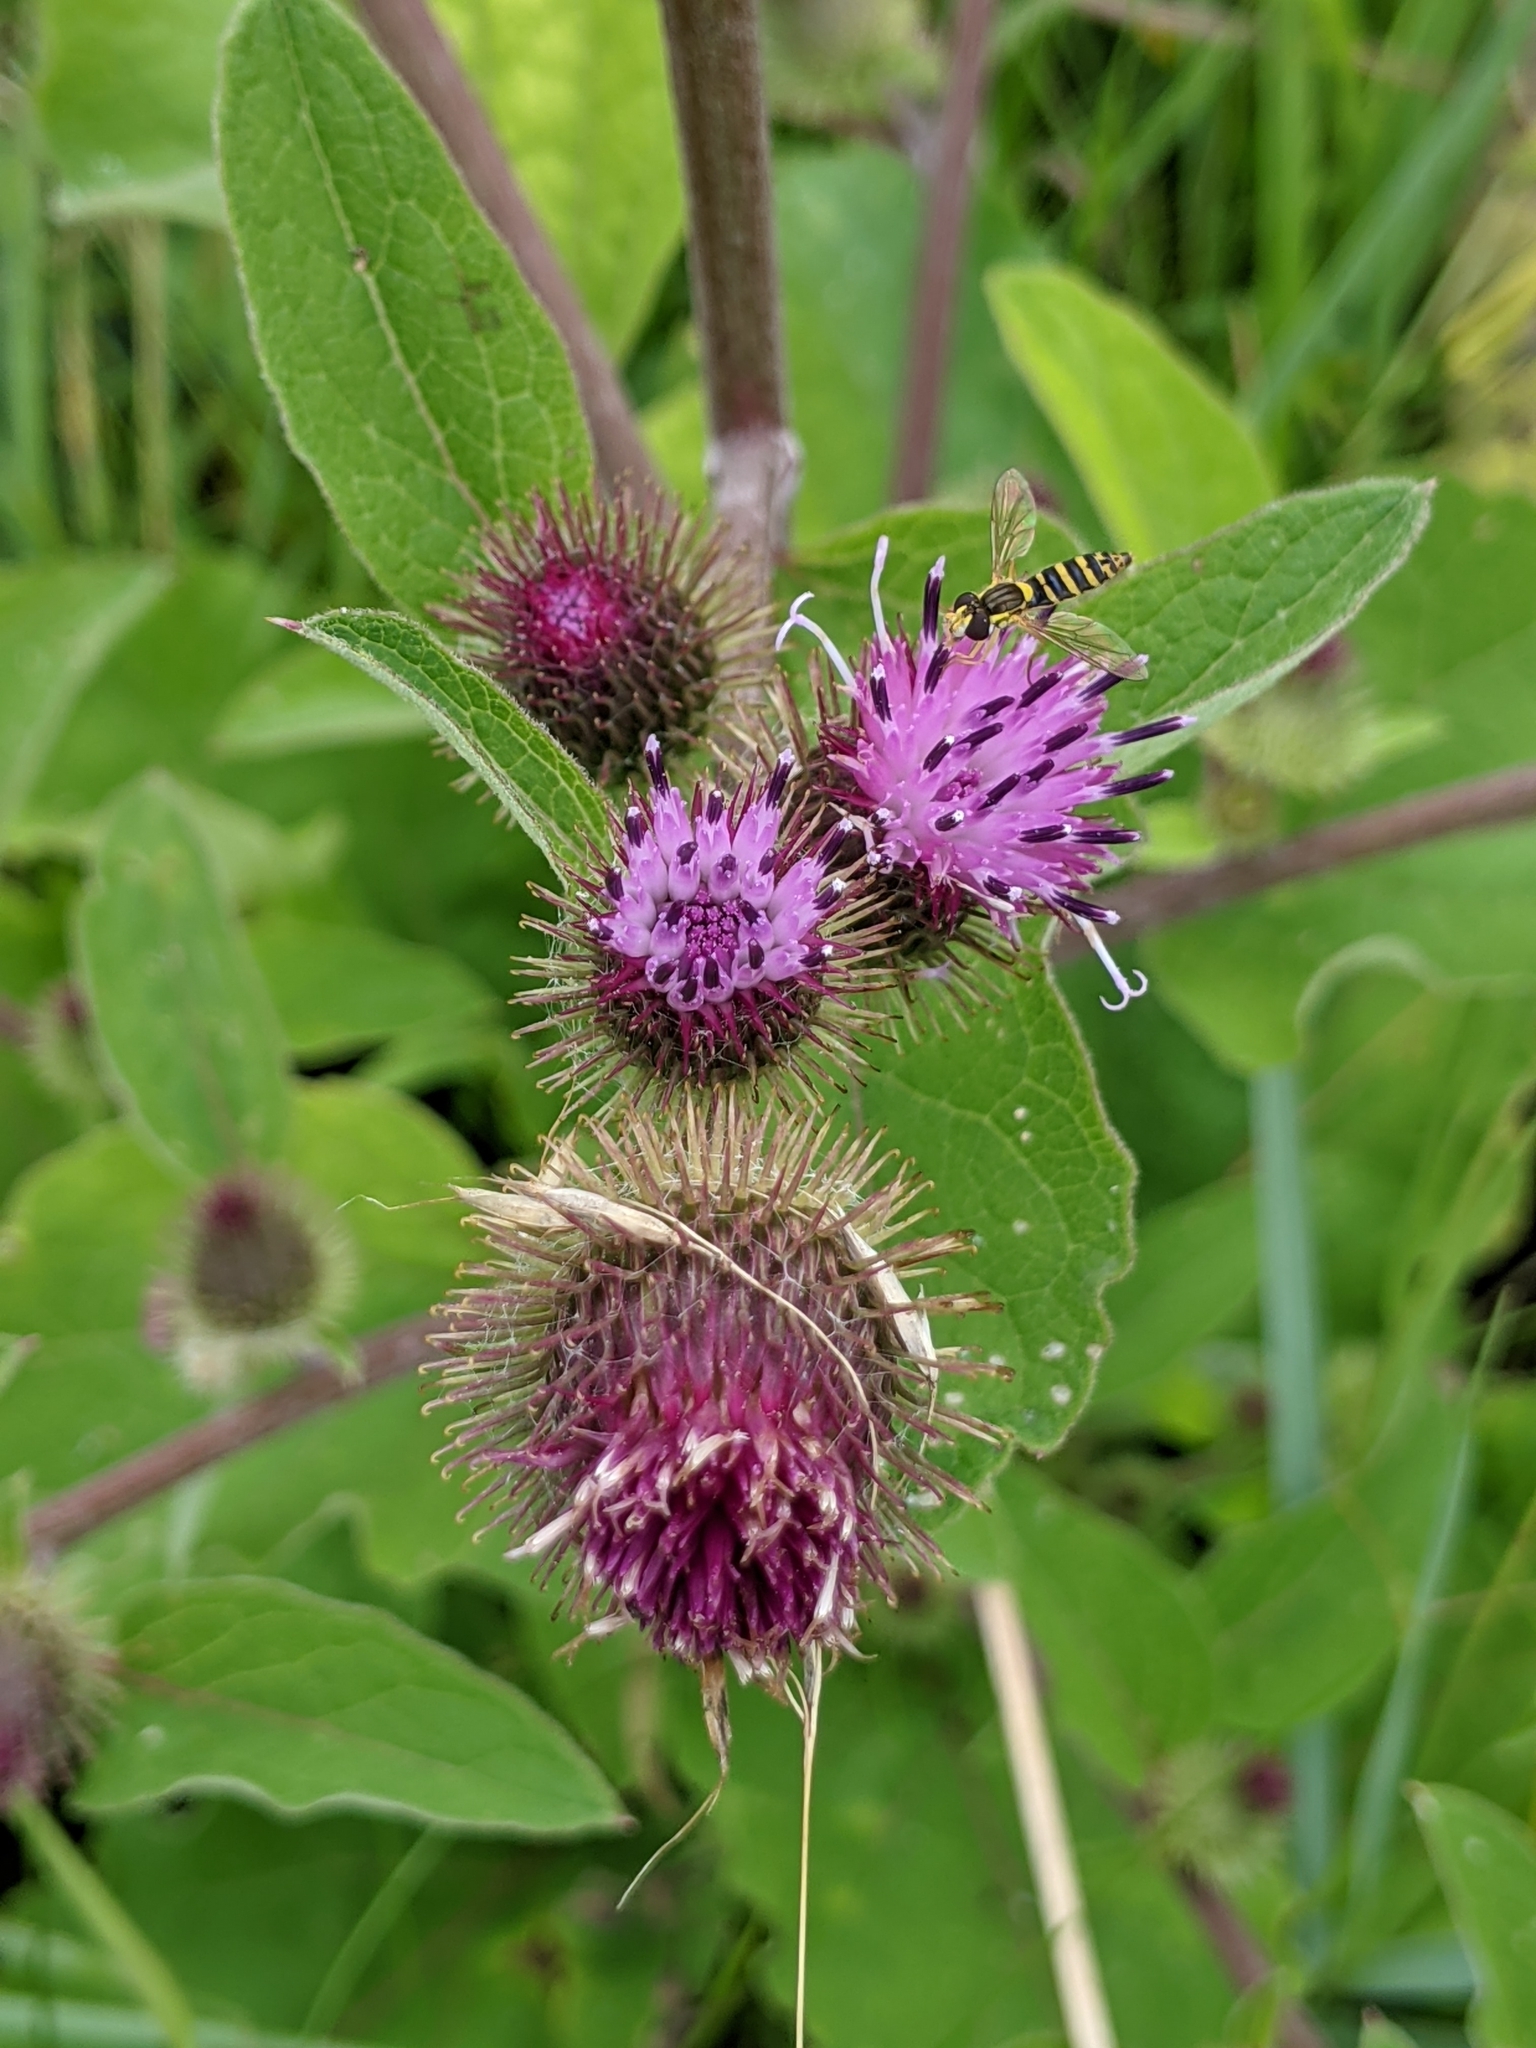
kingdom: Plantae
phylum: Tracheophyta
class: Magnoliopsida
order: Asterales
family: Asteraceae
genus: Arctium
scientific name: Arctium minus
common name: Lesser burdock
